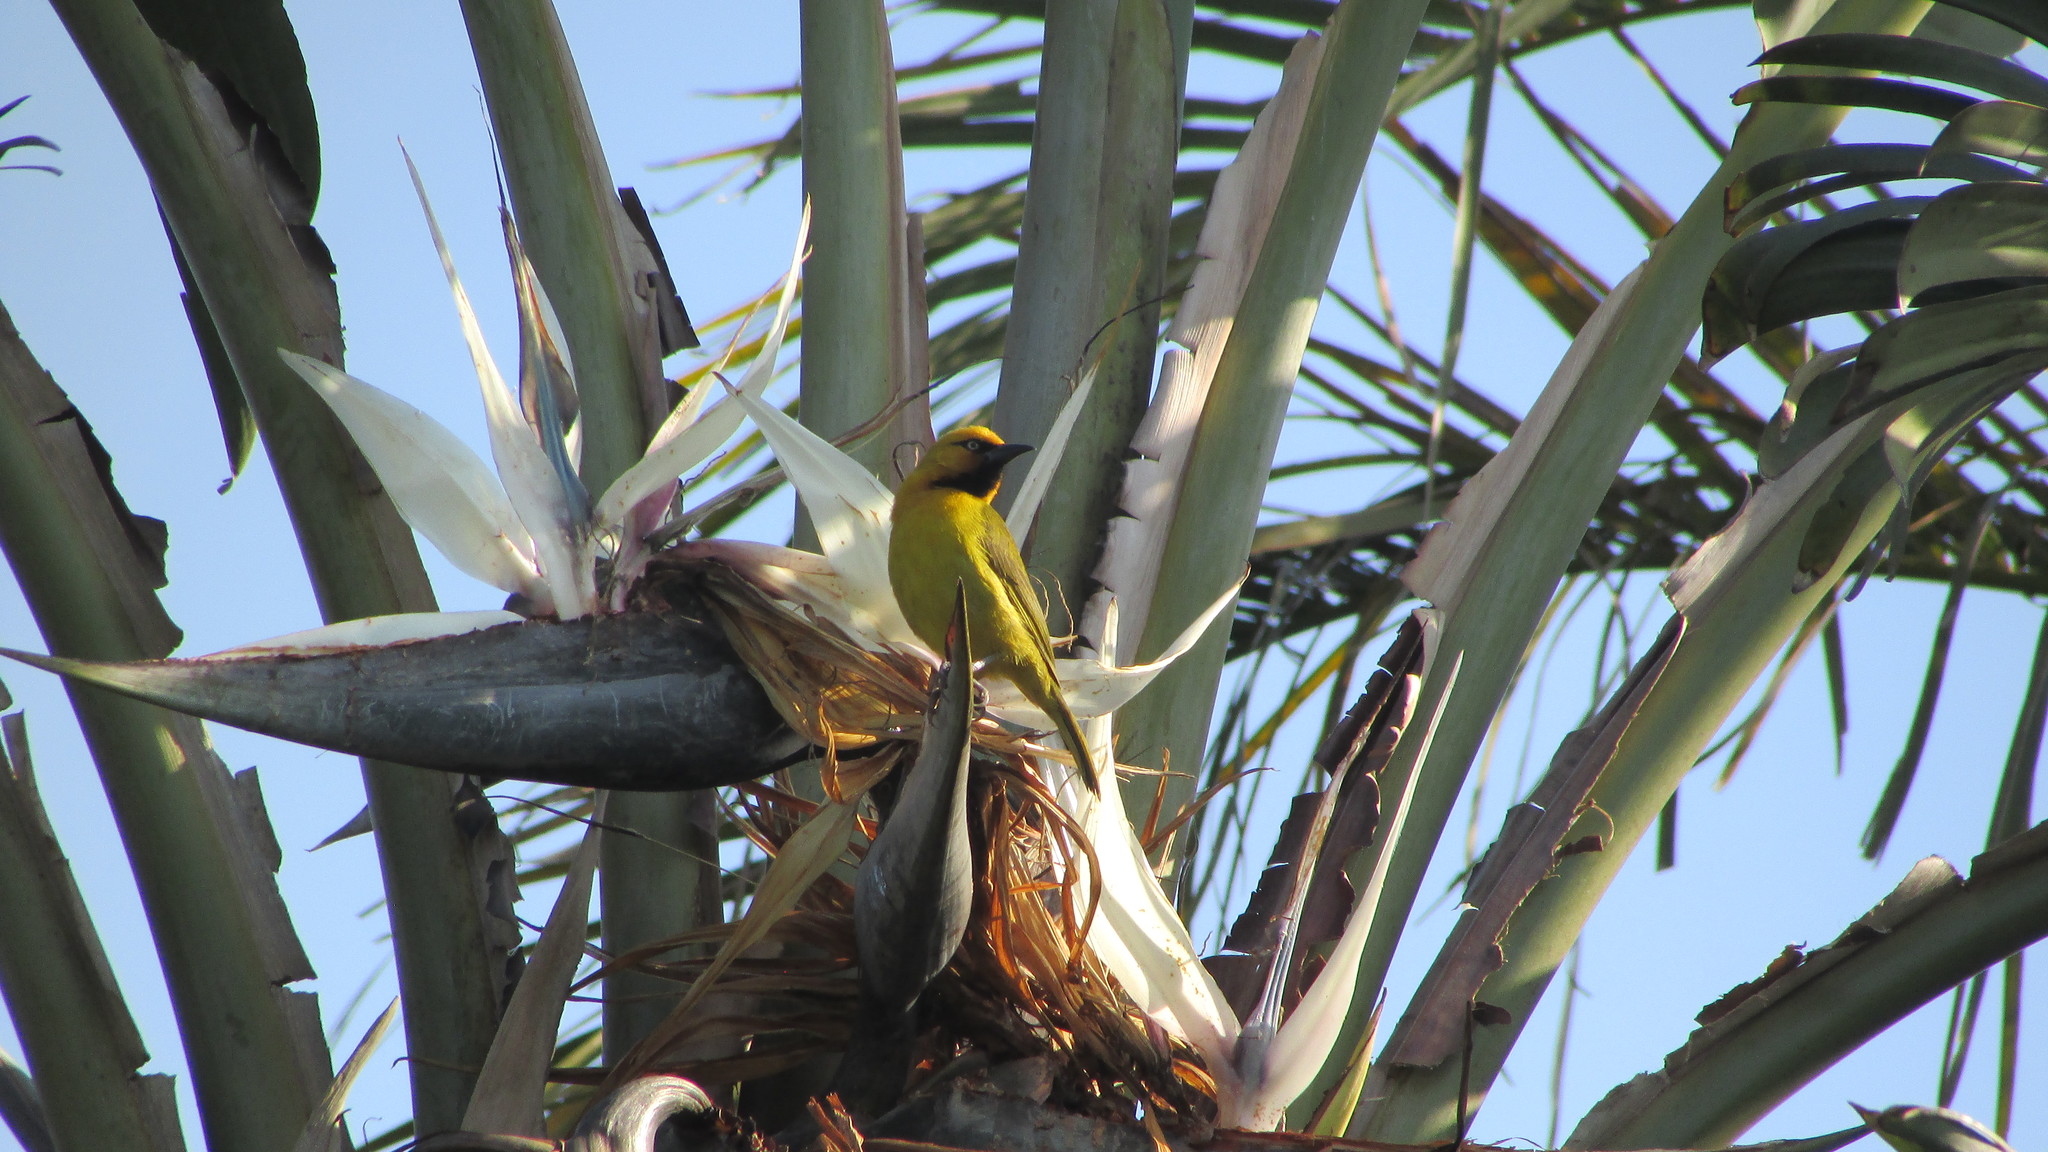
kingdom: Animalia
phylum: Chordata
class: Aves
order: Passeriformes
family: Ploceidae
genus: Ploceus
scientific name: Ploceus ocularis
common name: Spectacled weaver
